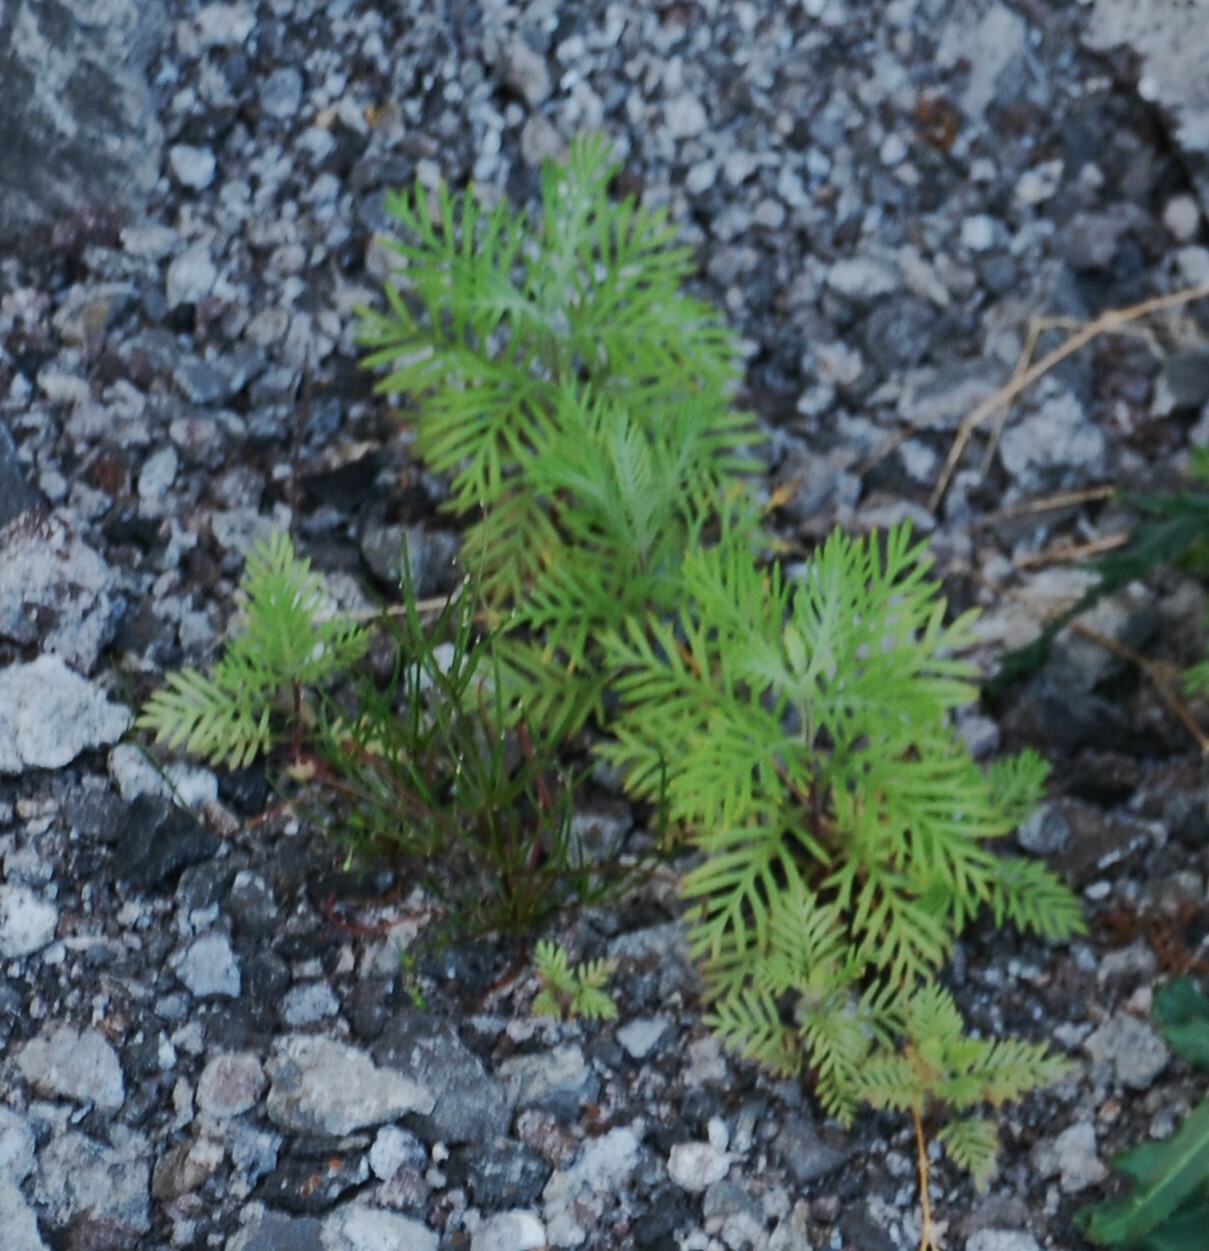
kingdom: Plantae
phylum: Tracheophyta
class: Magnoliopsida
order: Lamiales
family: Lamiaceae
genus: Lavandula
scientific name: Lavandula canariensis
